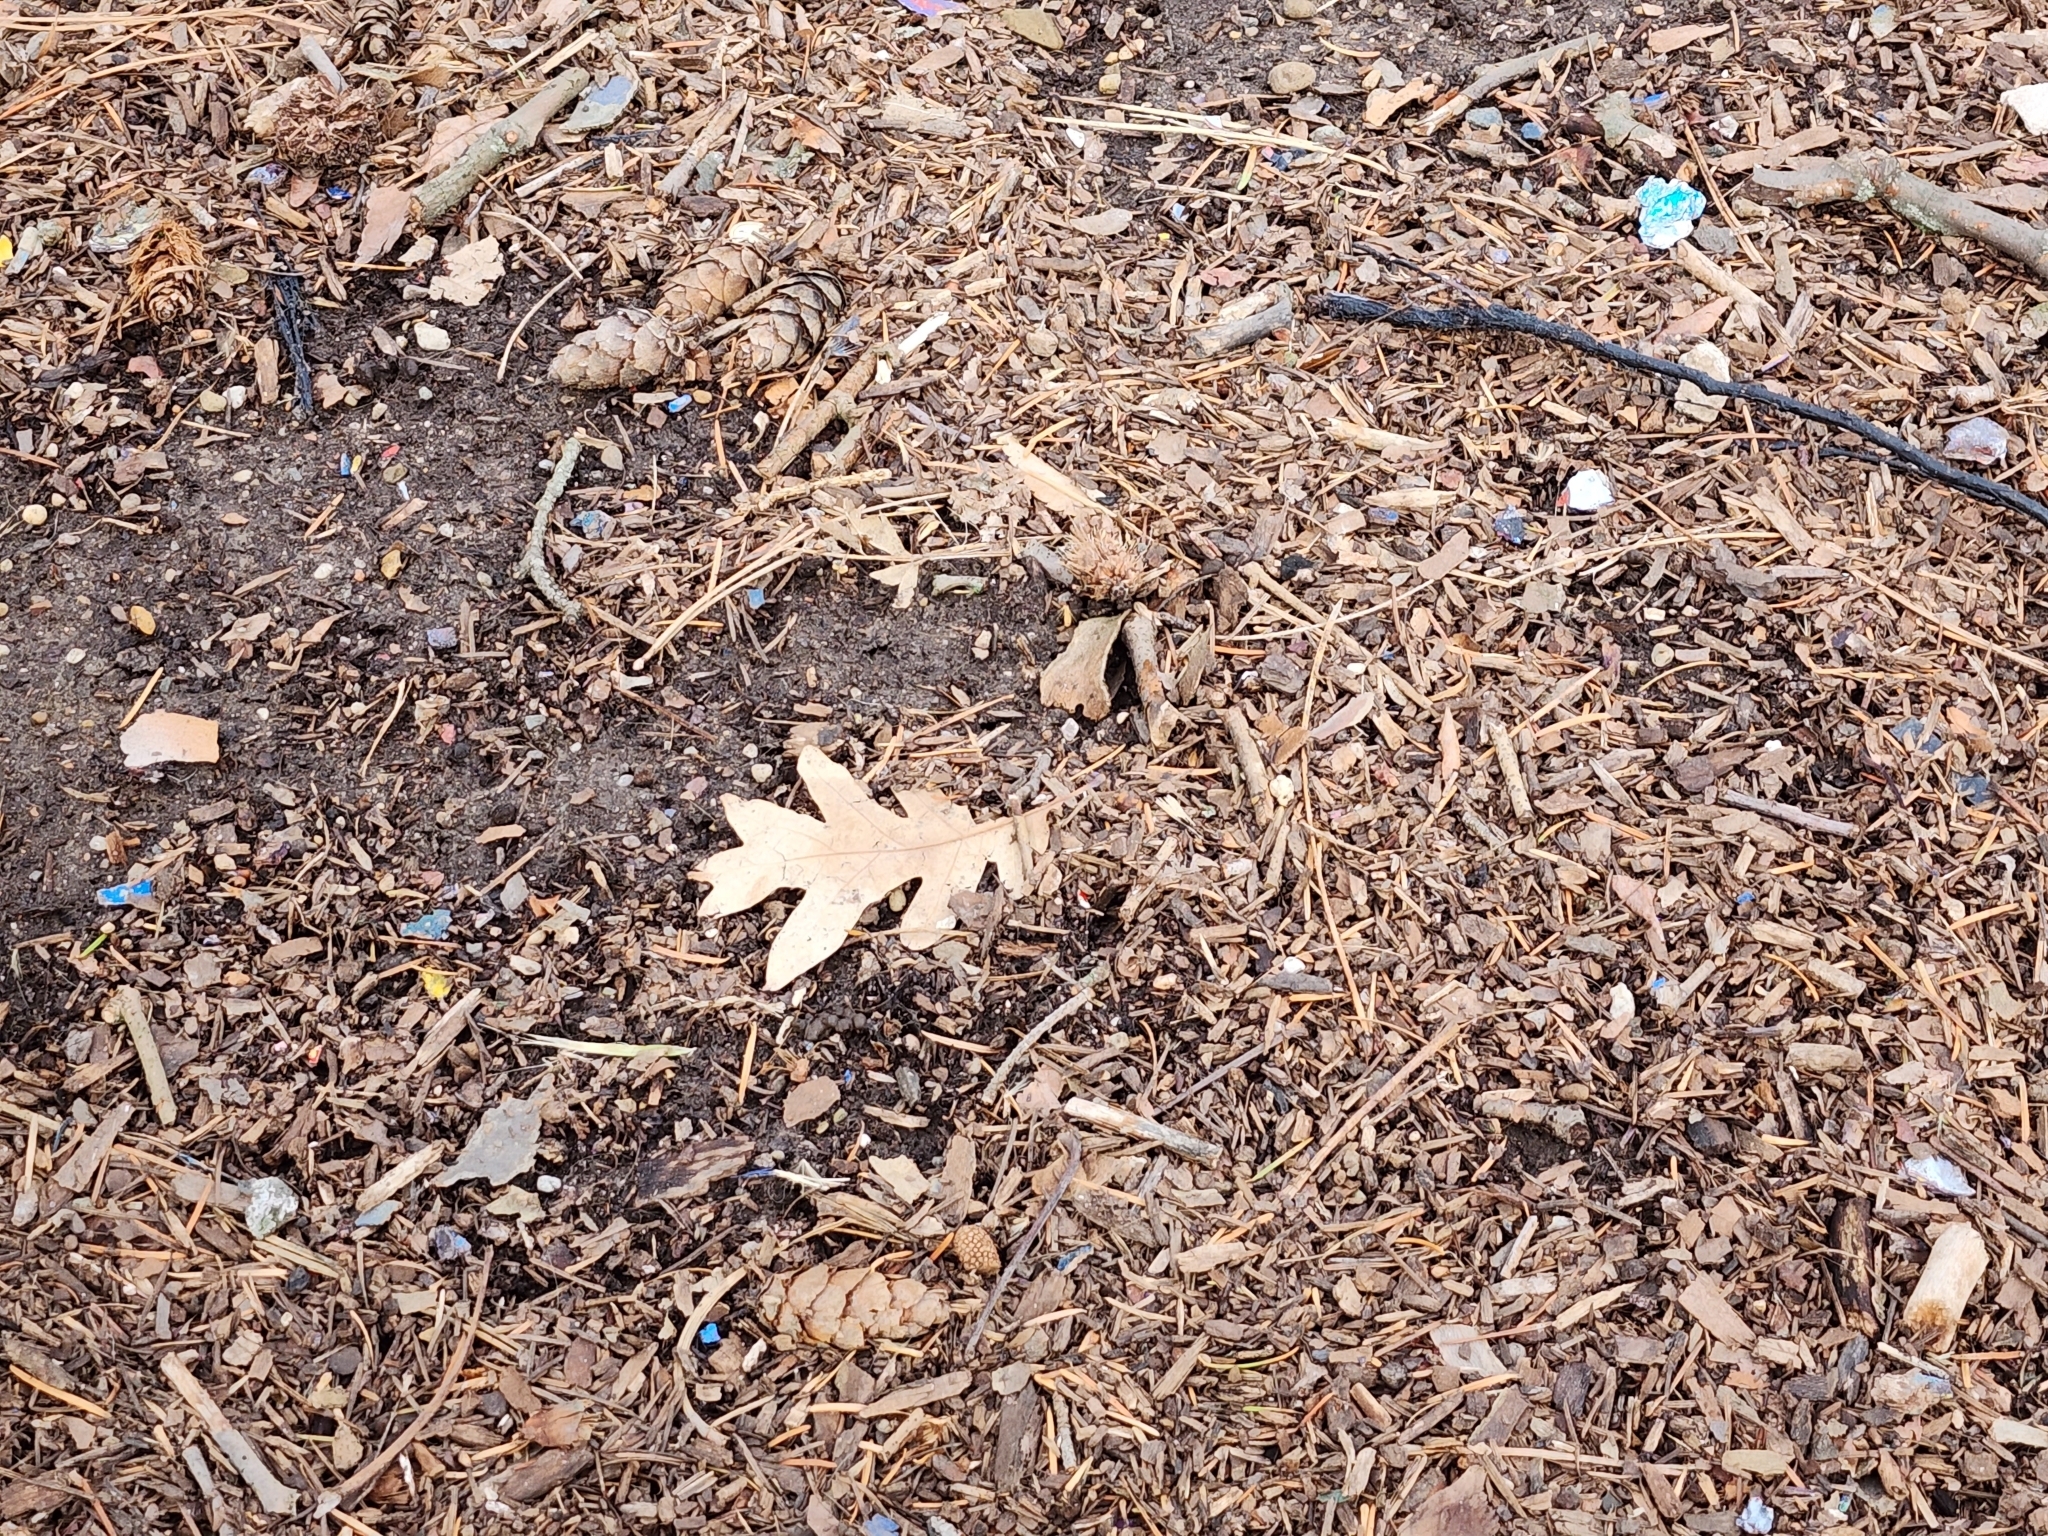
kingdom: Plantae
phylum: Tracheophyta
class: Magnoliopsida
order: Fagales
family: Fagaceae
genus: Quercus
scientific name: Quercus alba
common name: White oak
